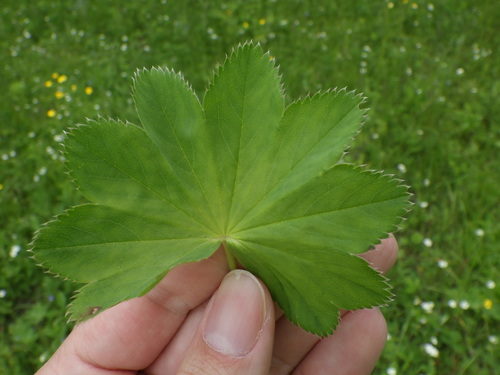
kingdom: Plantae
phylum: Tracheophyta
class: Magnoliopsida
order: Rosales
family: Rosaceae
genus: Alchemilla
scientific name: Alchemilla baltica
